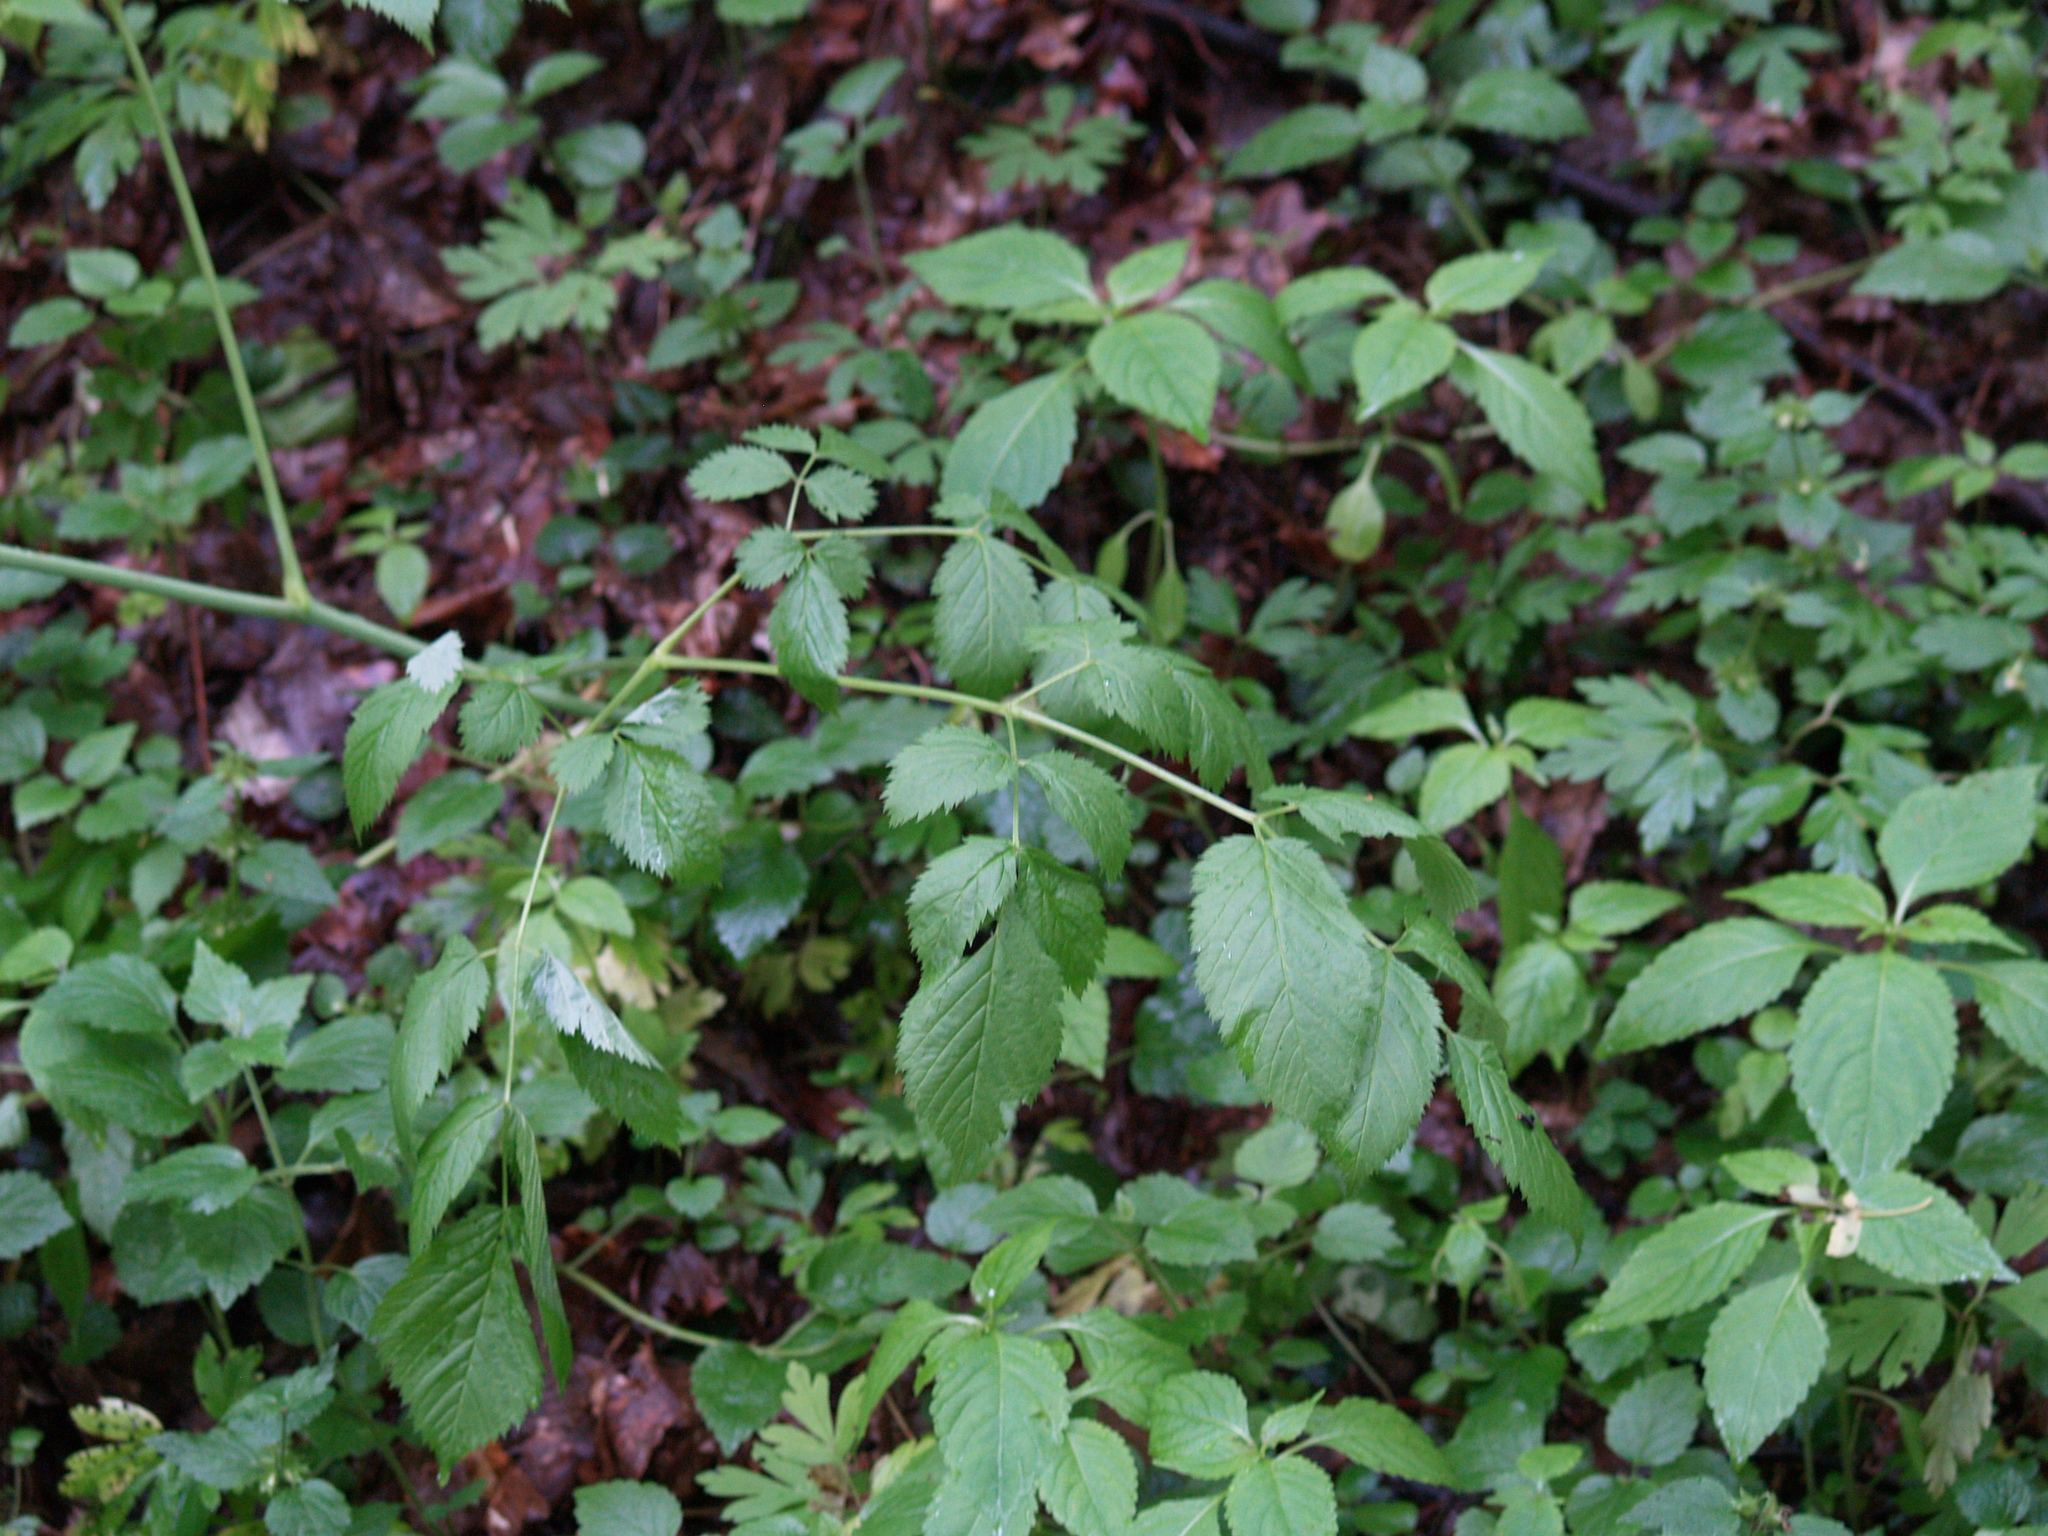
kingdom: Plantae
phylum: Tracheophyta
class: Magnoliopsida
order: Rosales
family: Rosaceae
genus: Aruncus
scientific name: Aruncus dioicus
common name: Buck's-beard
